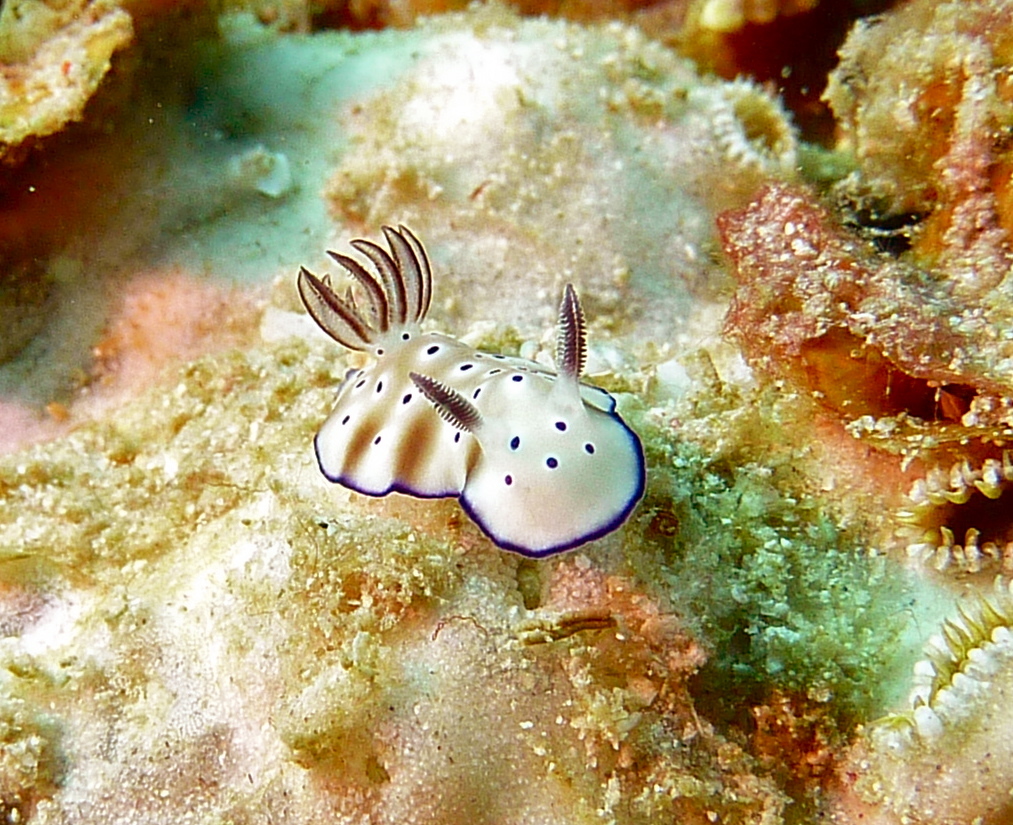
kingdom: Animalia
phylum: Mollusca
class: Gastropoda
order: Nudibranchia
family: Chromodorididae
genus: Hypselodoris
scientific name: Hypselodoris tryoni
